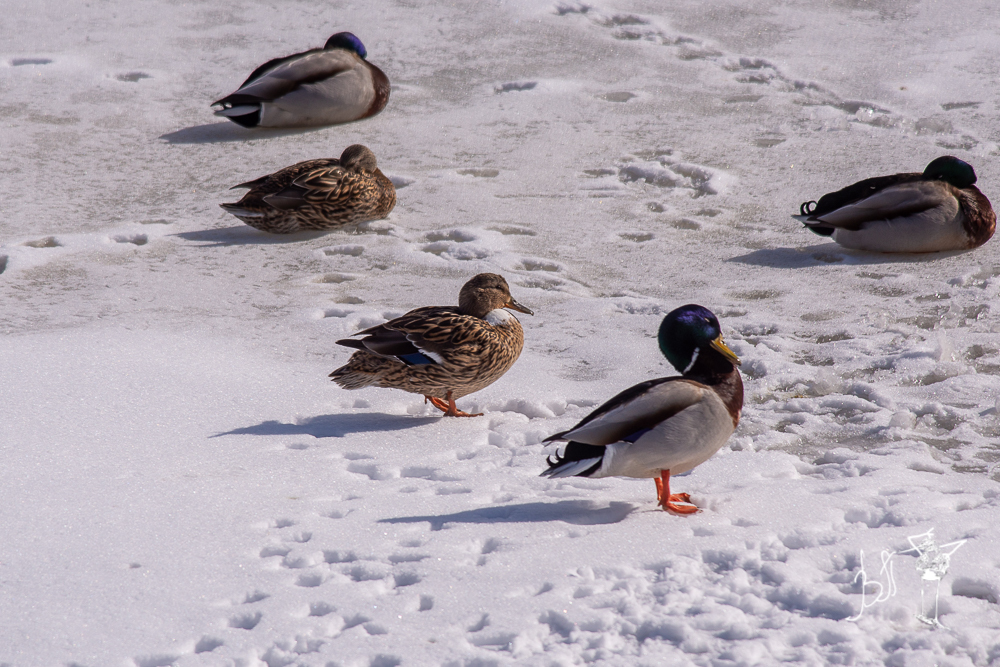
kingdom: Animalia
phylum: Chordata
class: Aves
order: Anseriformes
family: Anatidae
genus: Anas
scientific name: Anas platyrhynchos
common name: Mallard
